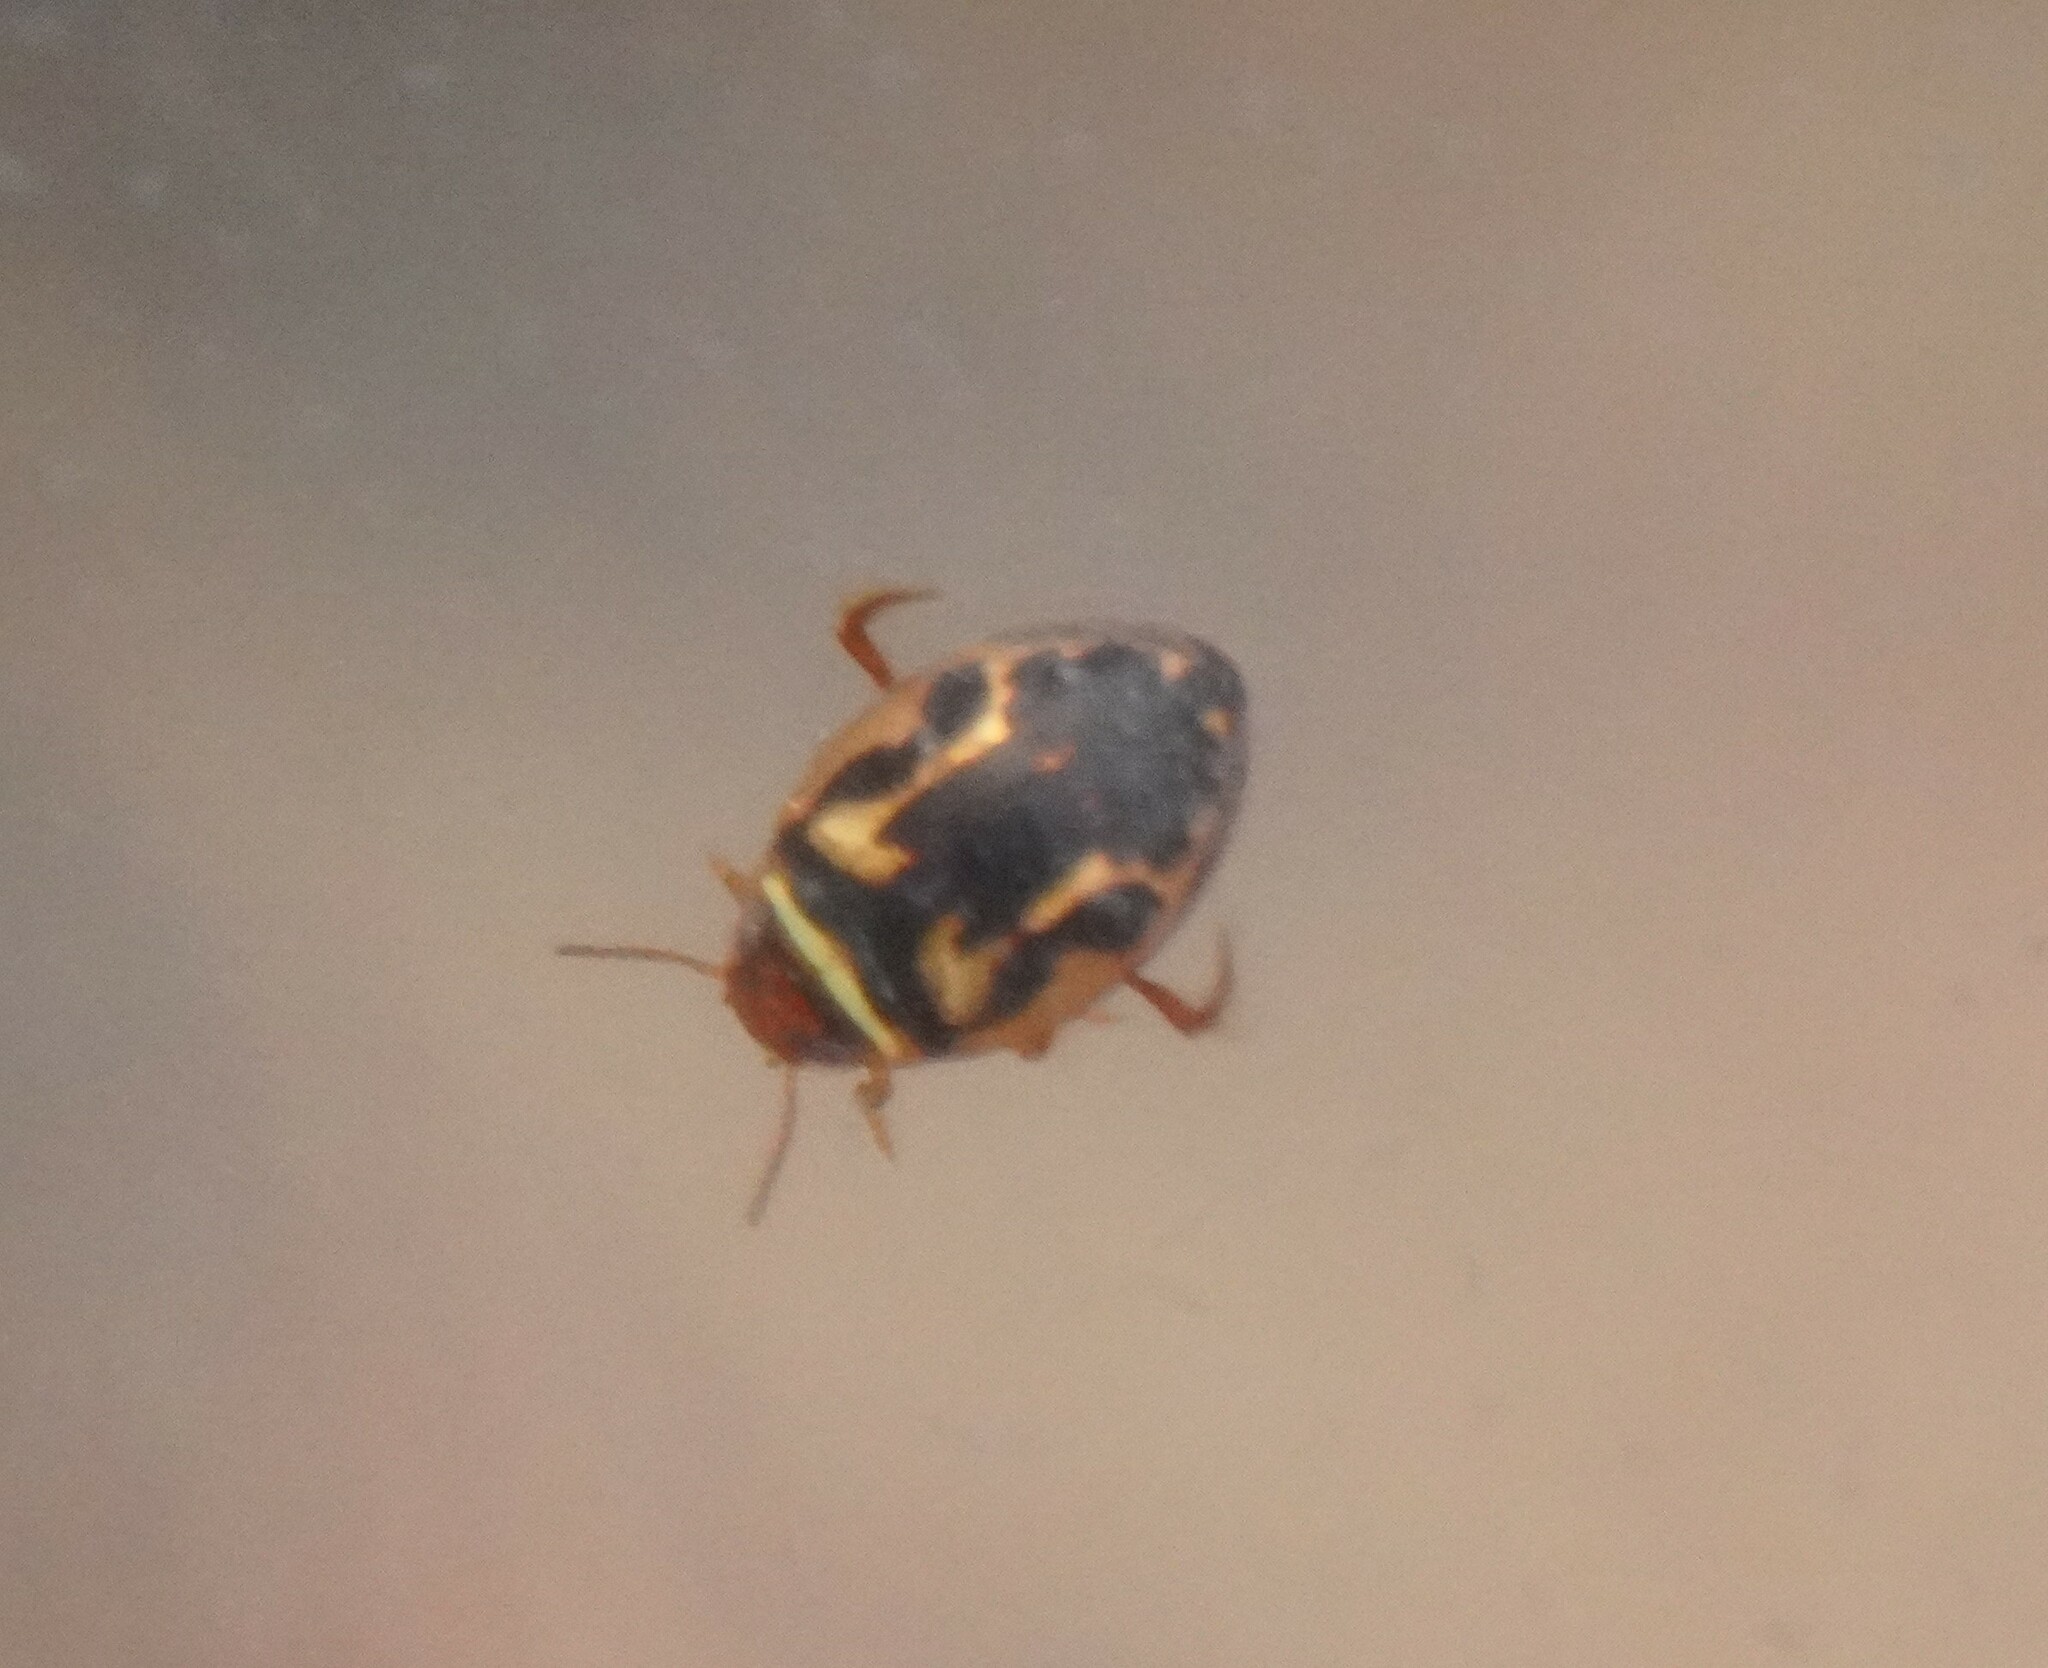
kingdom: Animalia
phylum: Arthropoda
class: Insecta
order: Coleoptera
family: Dytiscidae
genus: Hygrotus
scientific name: Hygrotus inaequalis
